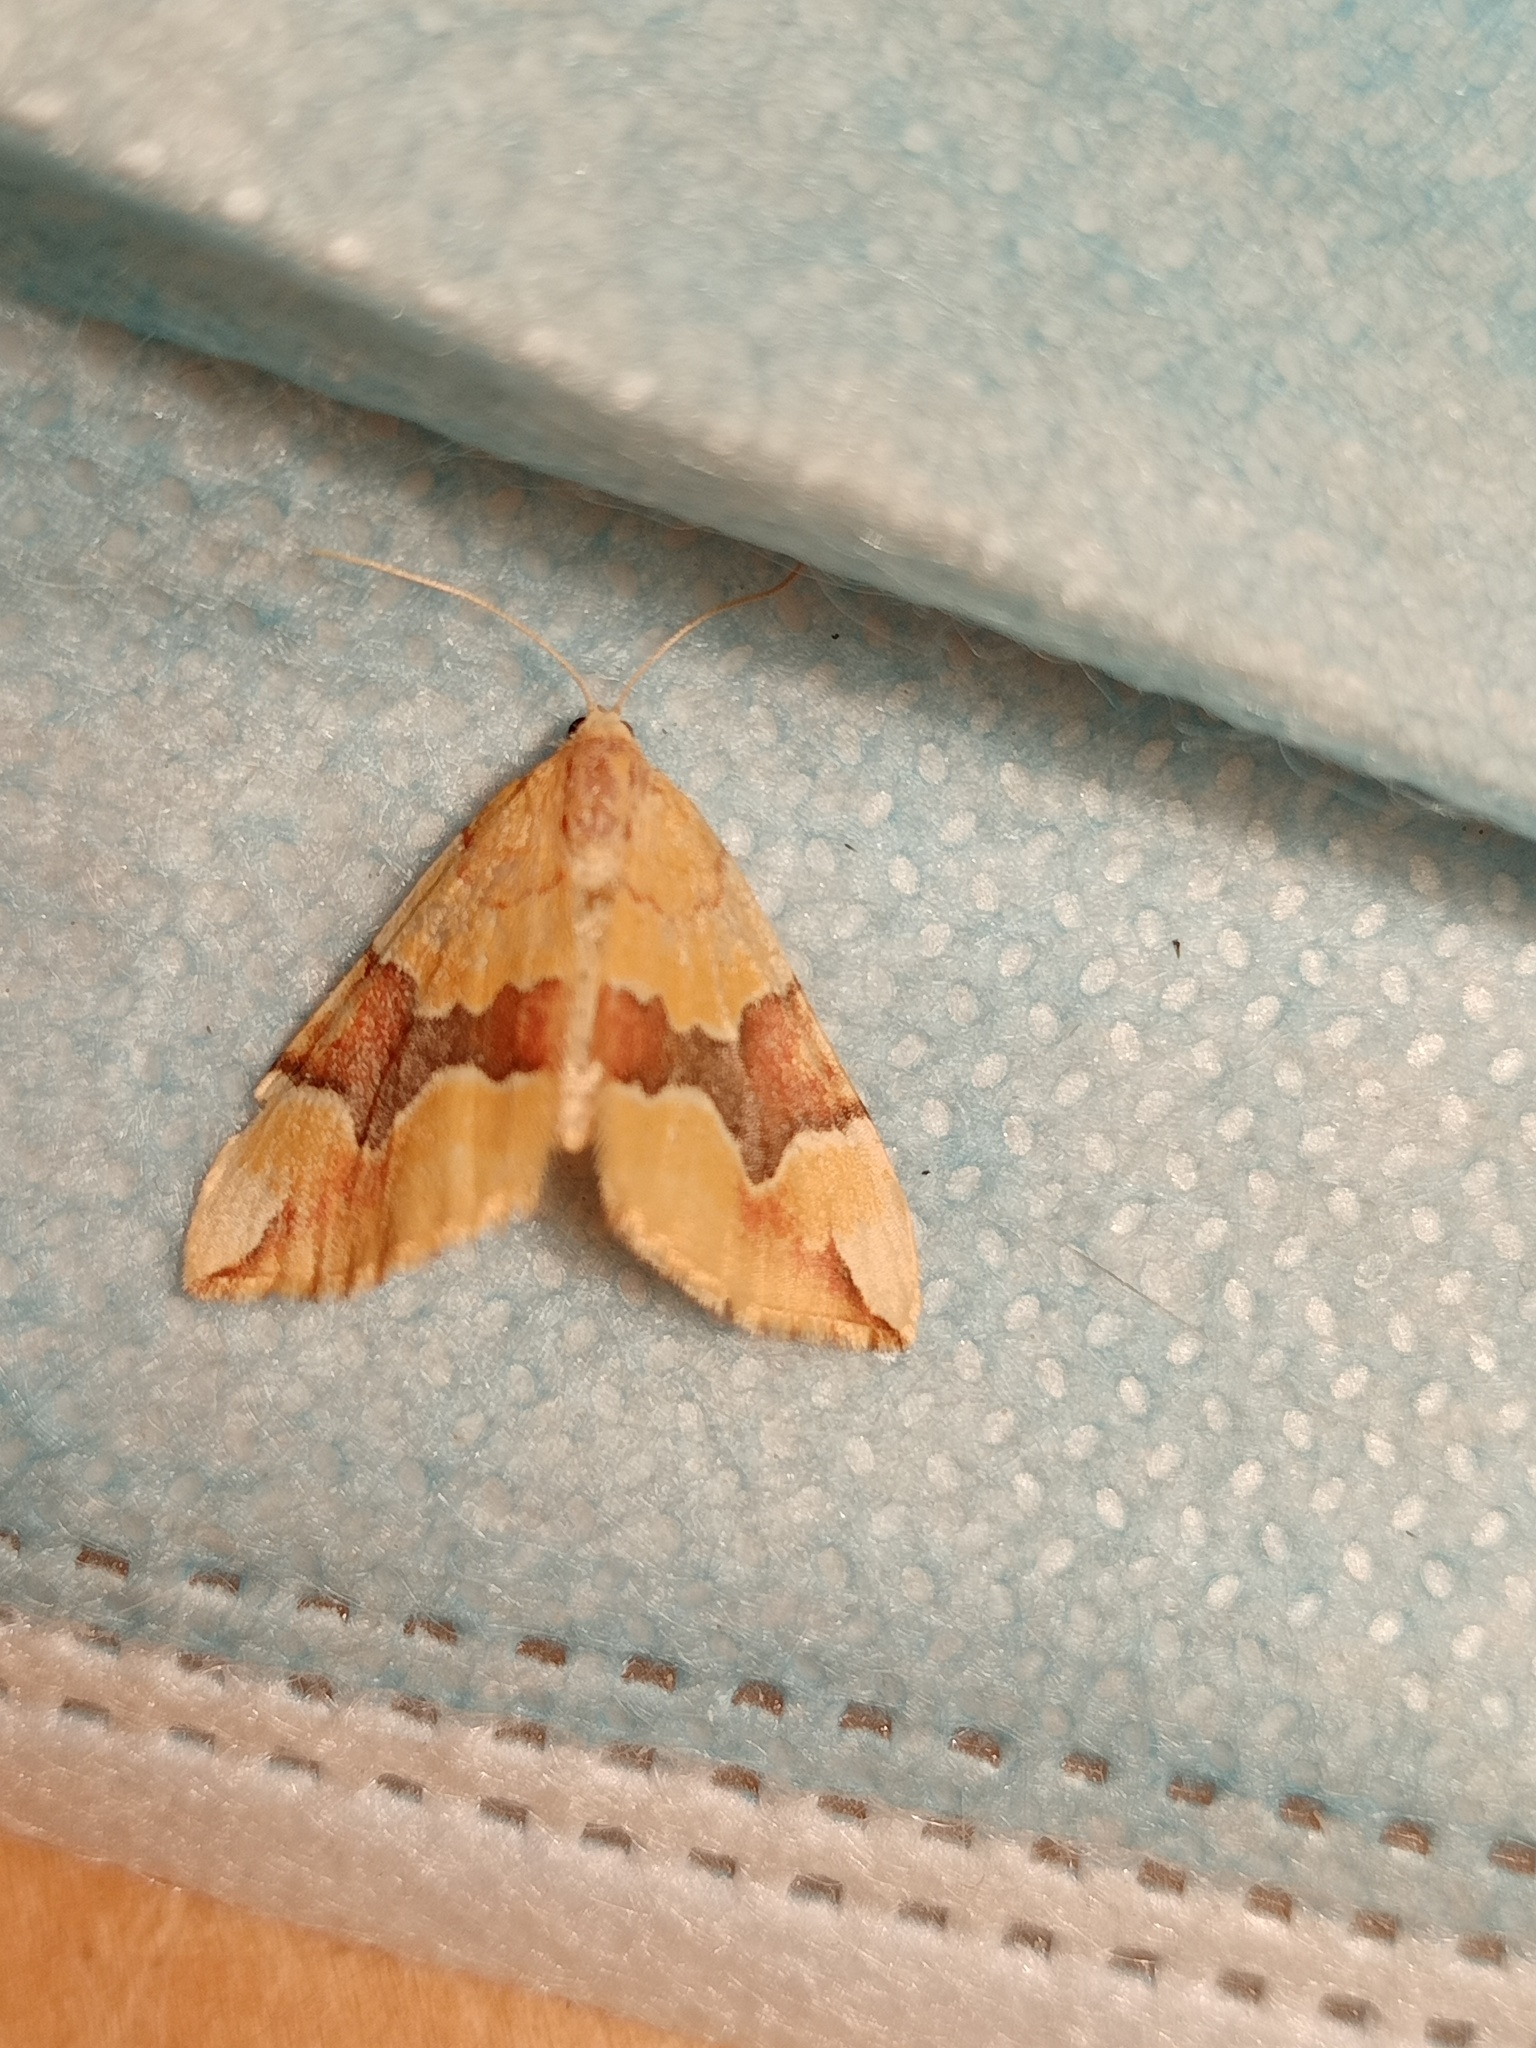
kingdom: Animalia
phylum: Arthropoda
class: Insecta
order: Lepidoptera
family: Geometridae
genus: Cidaria
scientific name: Cidaria fulvata
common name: Barred yellow
